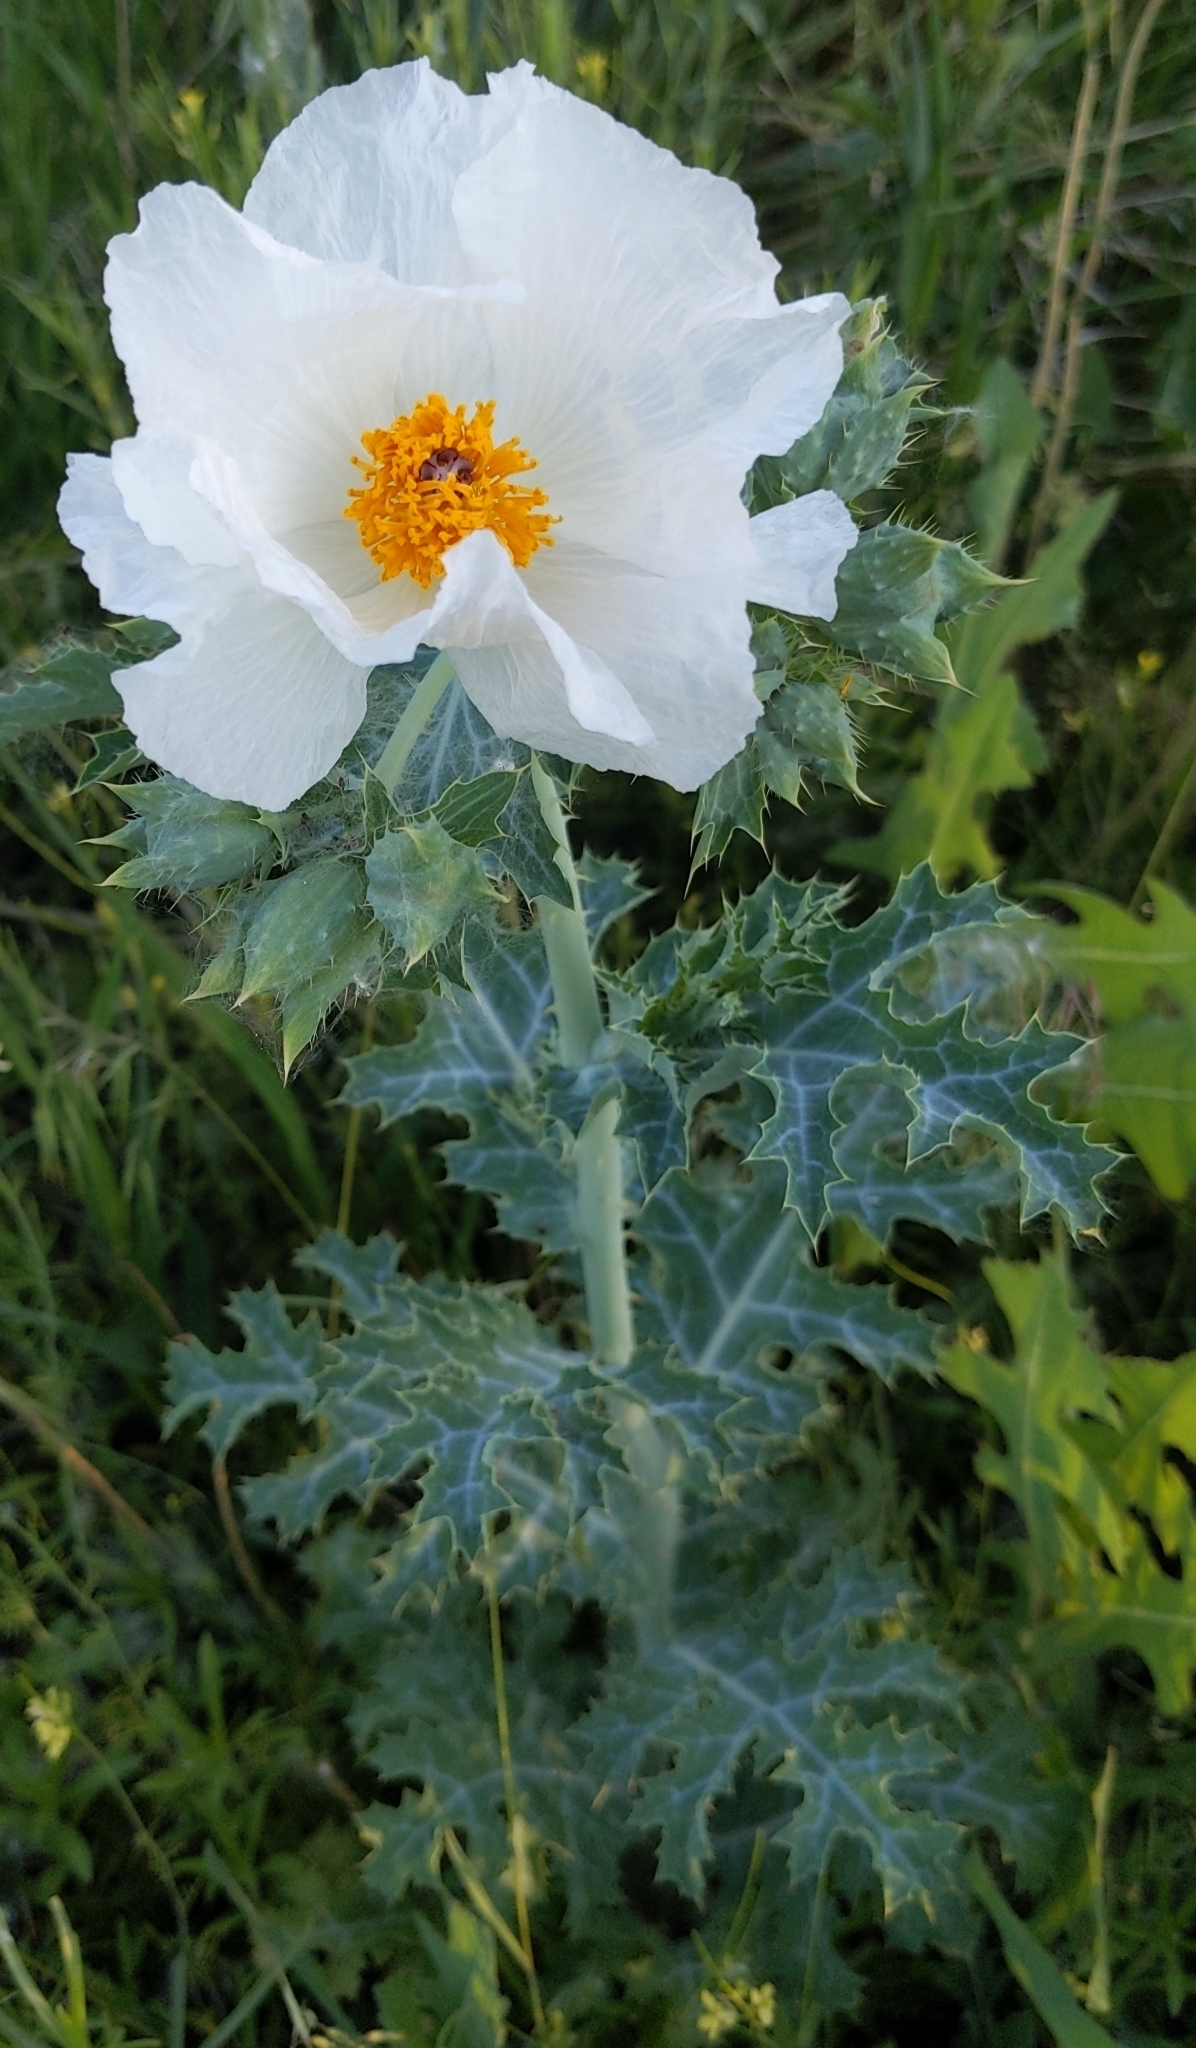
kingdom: Plantae
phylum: Tracheophyta
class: Magnoliopsida
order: Ranunculales
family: Papaveraceae
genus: Argemone
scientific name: Argemone polyanthemos
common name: Plains prickly-poppy
